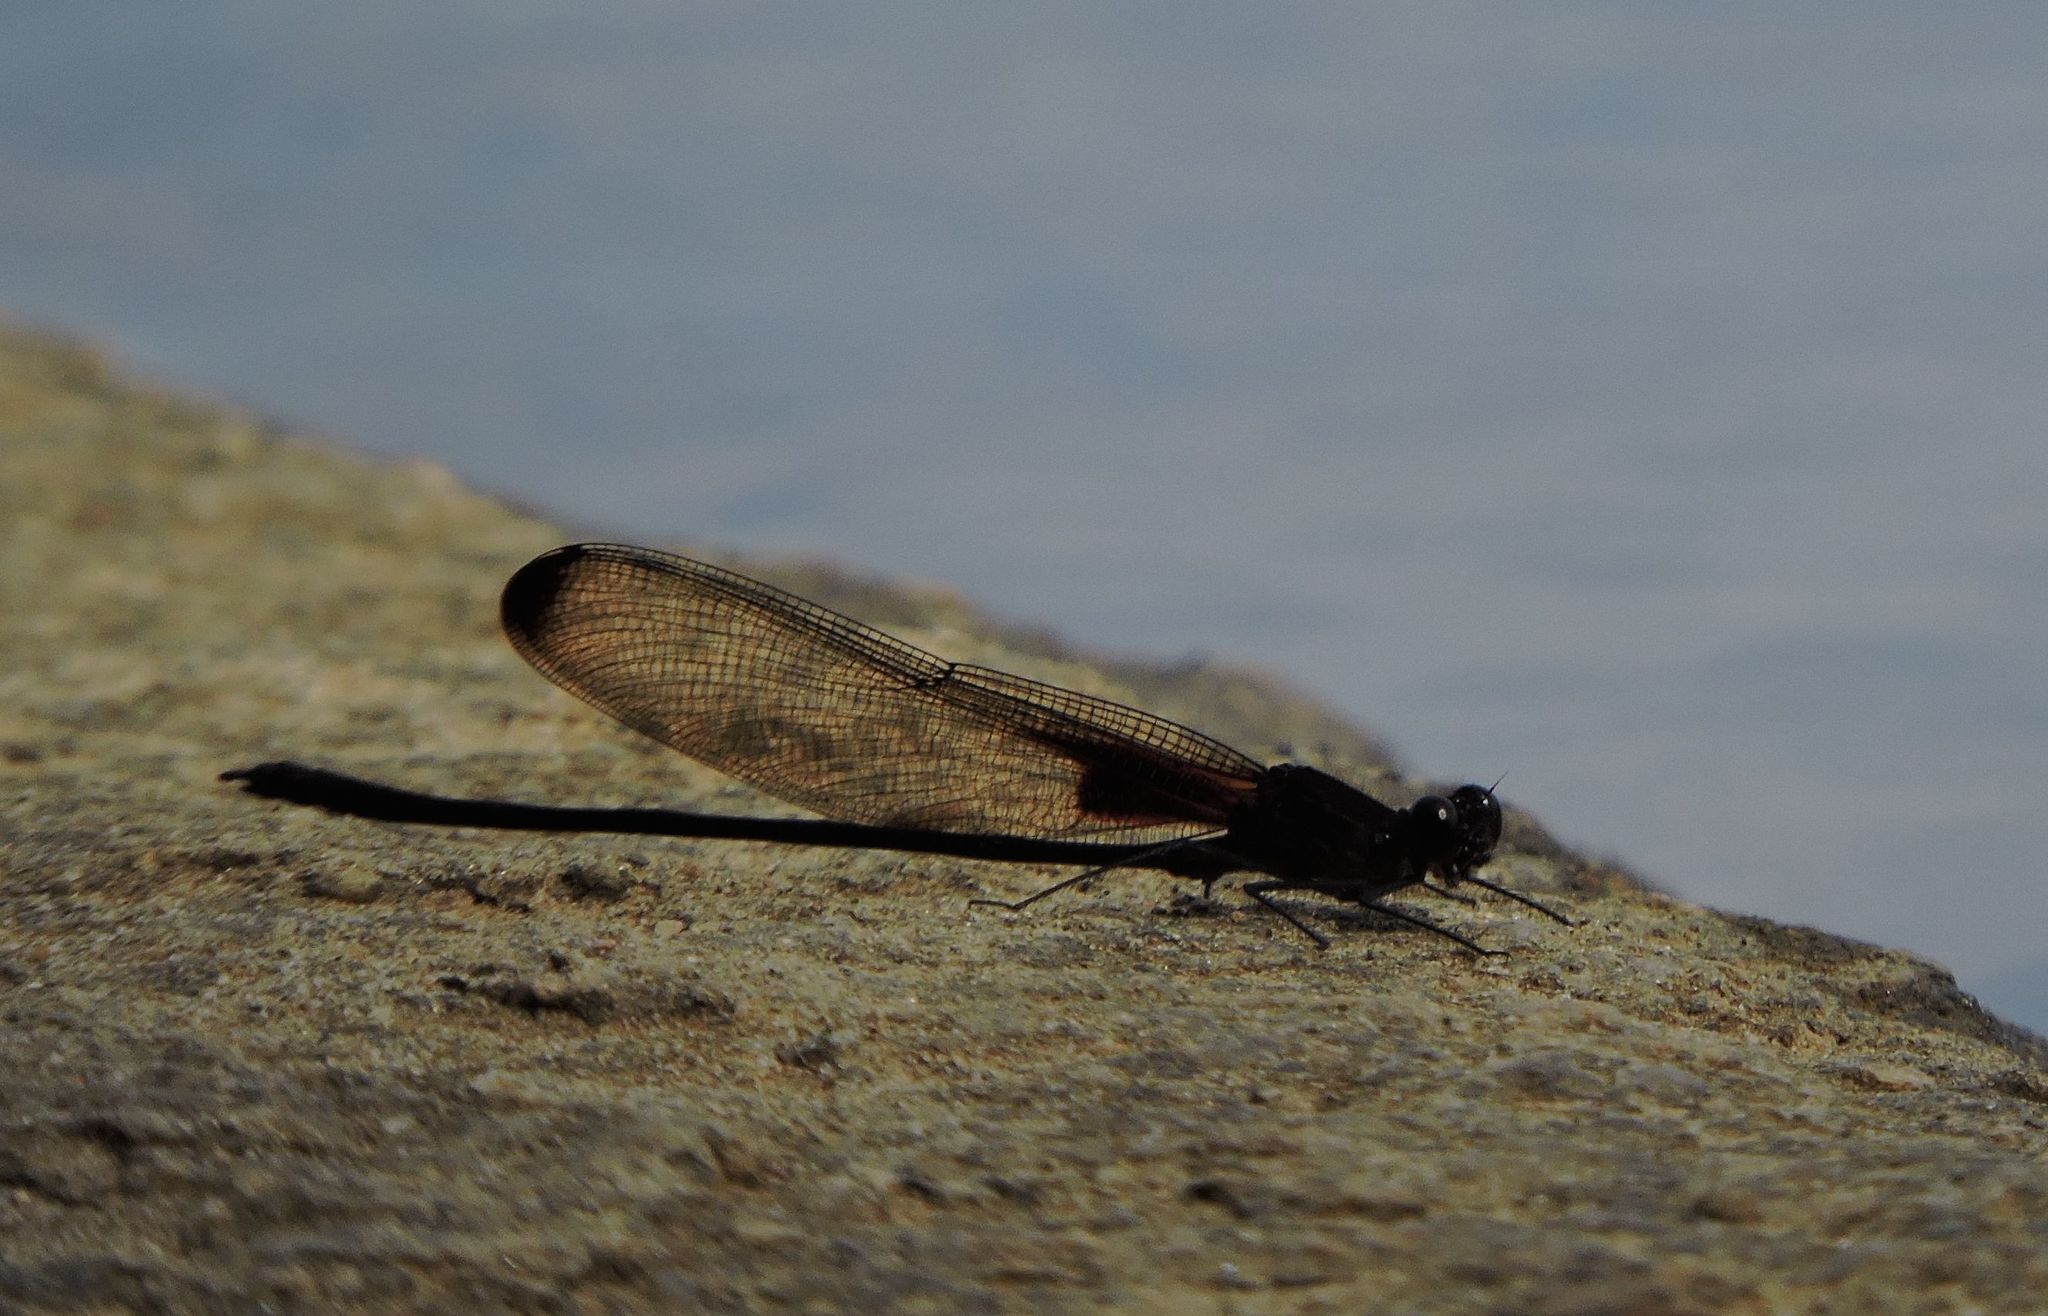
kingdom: Animalia
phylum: Arthropoda
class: Insecta
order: Odonata
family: Calopterygidae
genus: Hetaerina
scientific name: Hetaerina titia
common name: Smoky rubyspot
